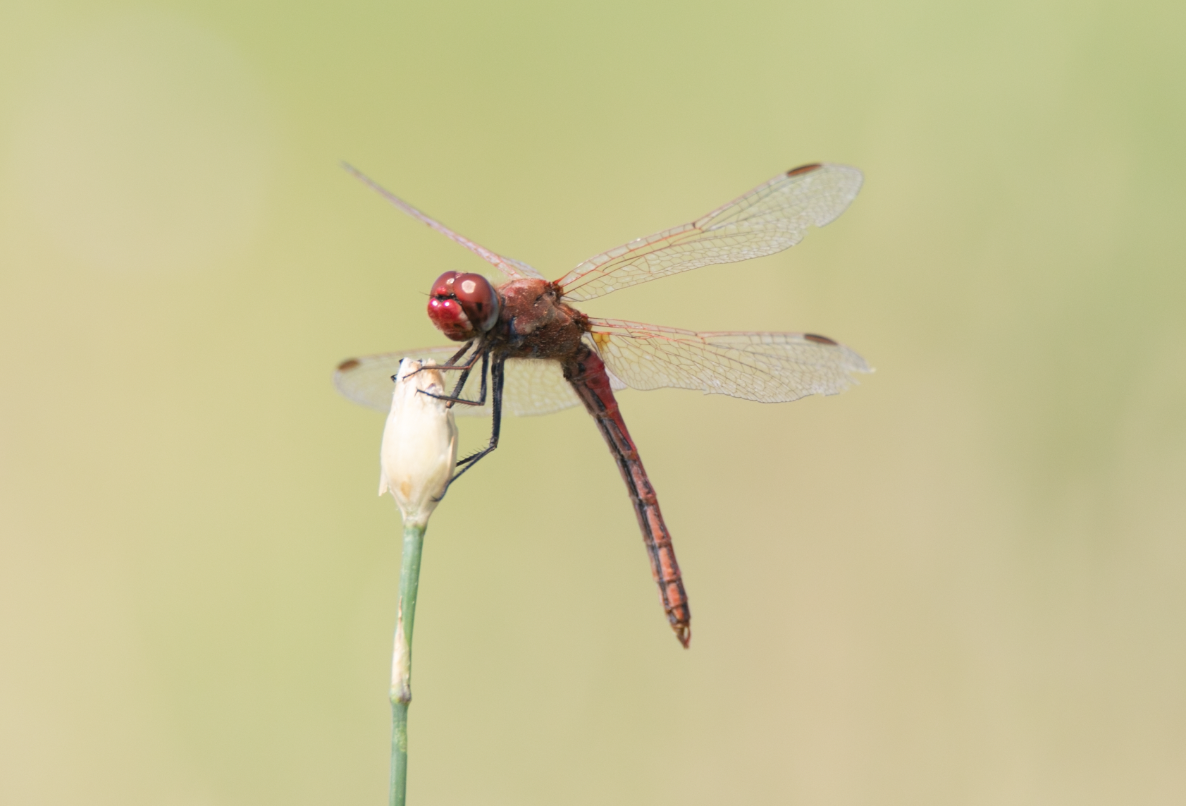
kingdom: Animalia
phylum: Arthropoda
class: Insecta
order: Odonata
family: Libellulidae
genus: Sympetrum
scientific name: Sympetrum fonscolombii
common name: Red-veined darter
